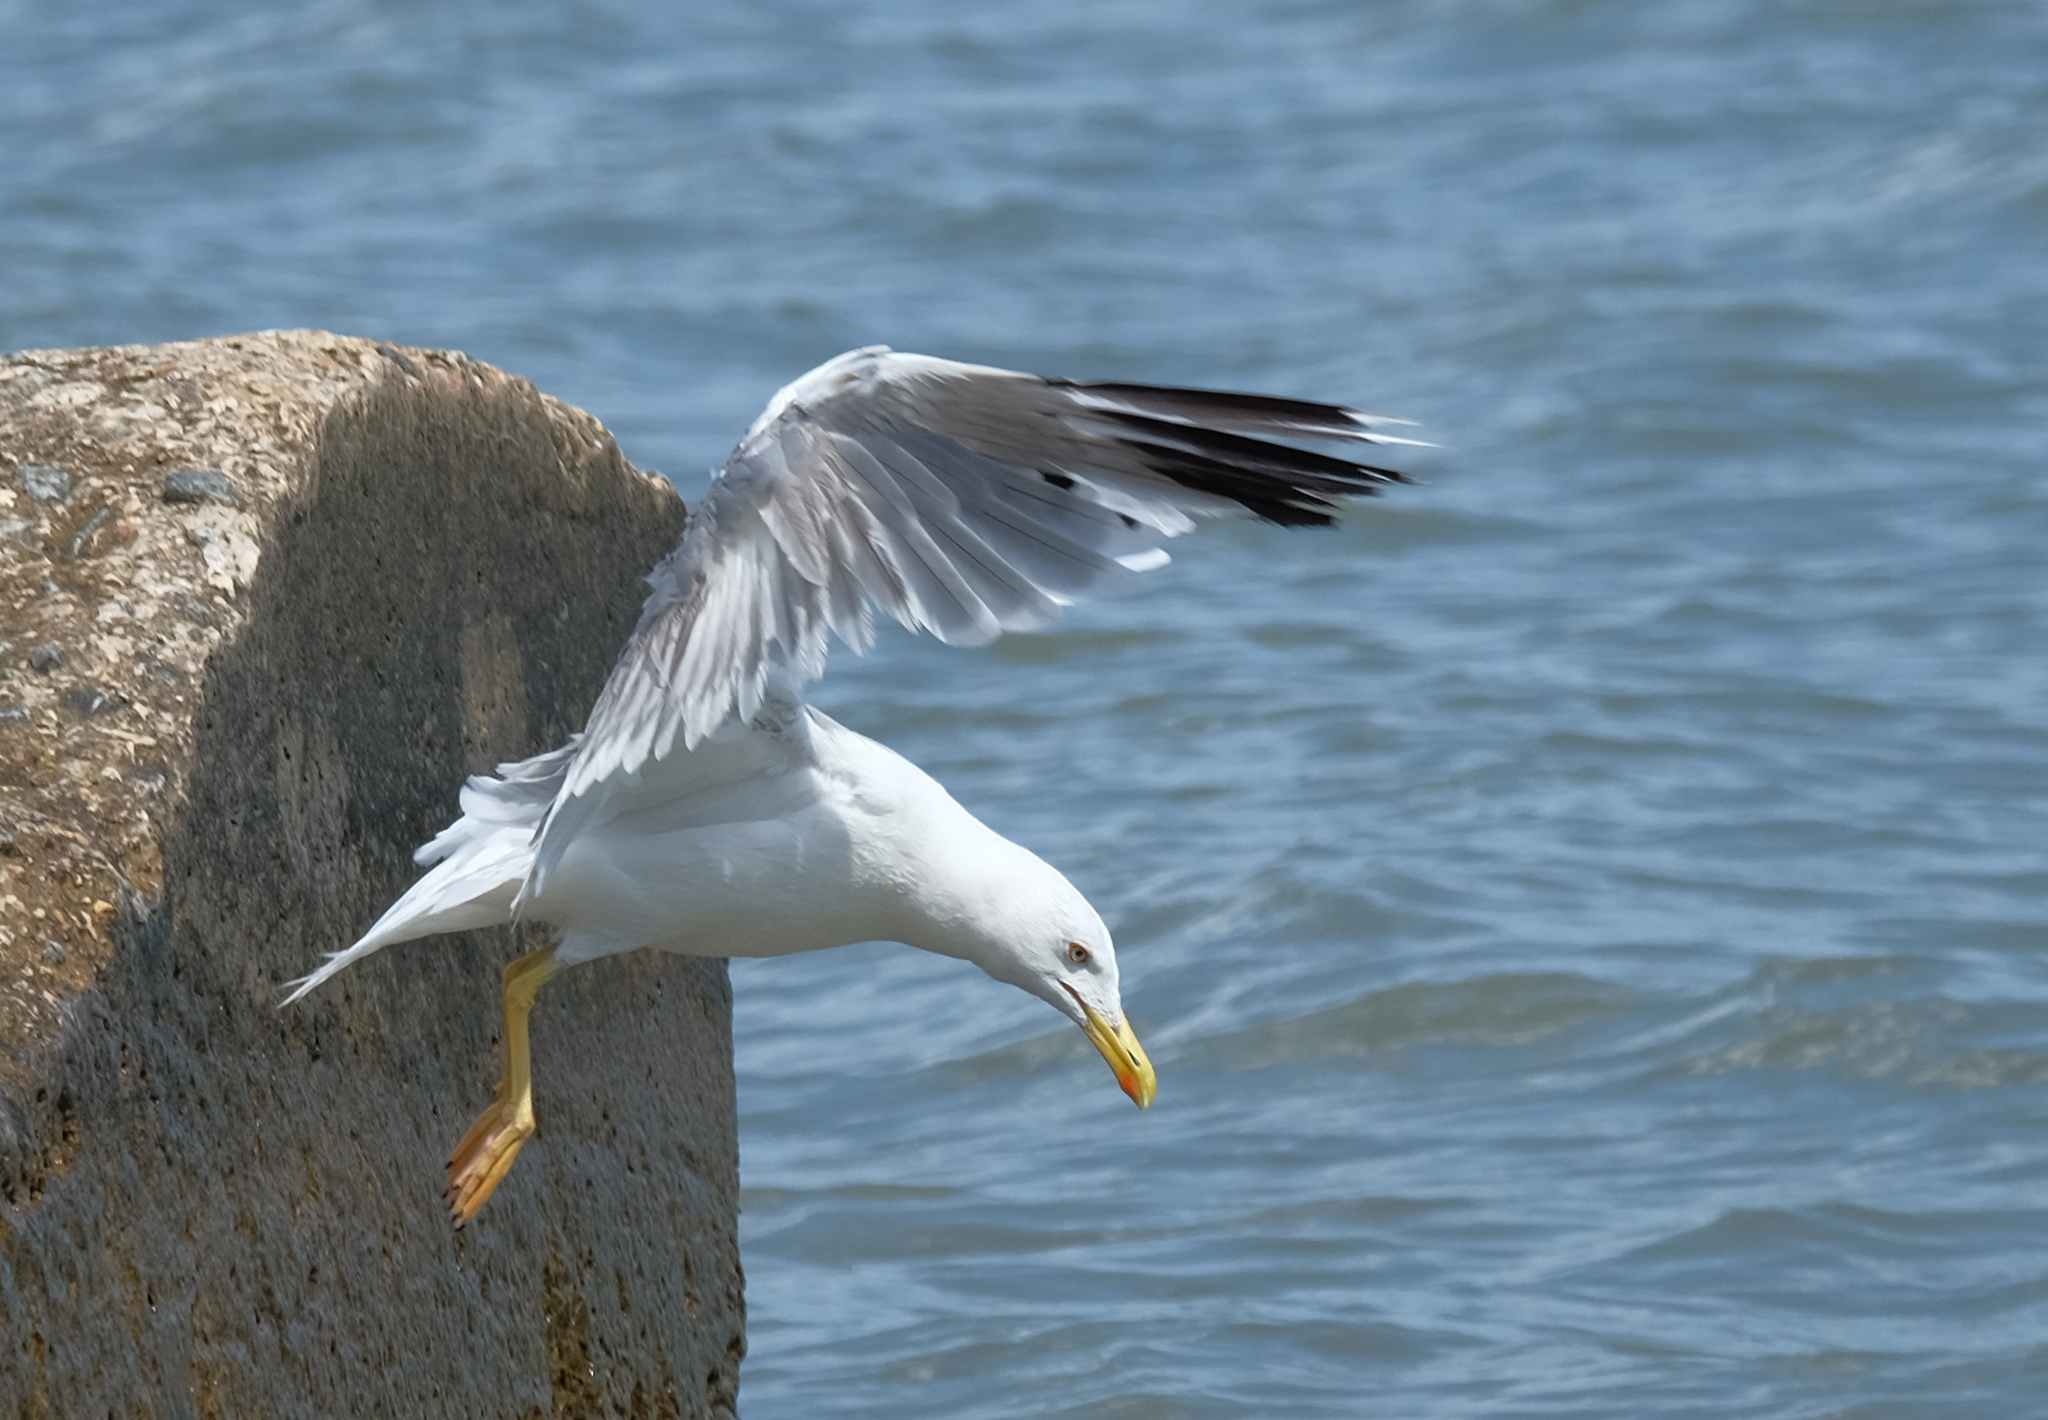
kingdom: Animalia
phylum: Chordata
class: Aves
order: Charadriiformes
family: Laridae
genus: Larus
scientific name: Larus michahellis
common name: Yellow-legged gull
